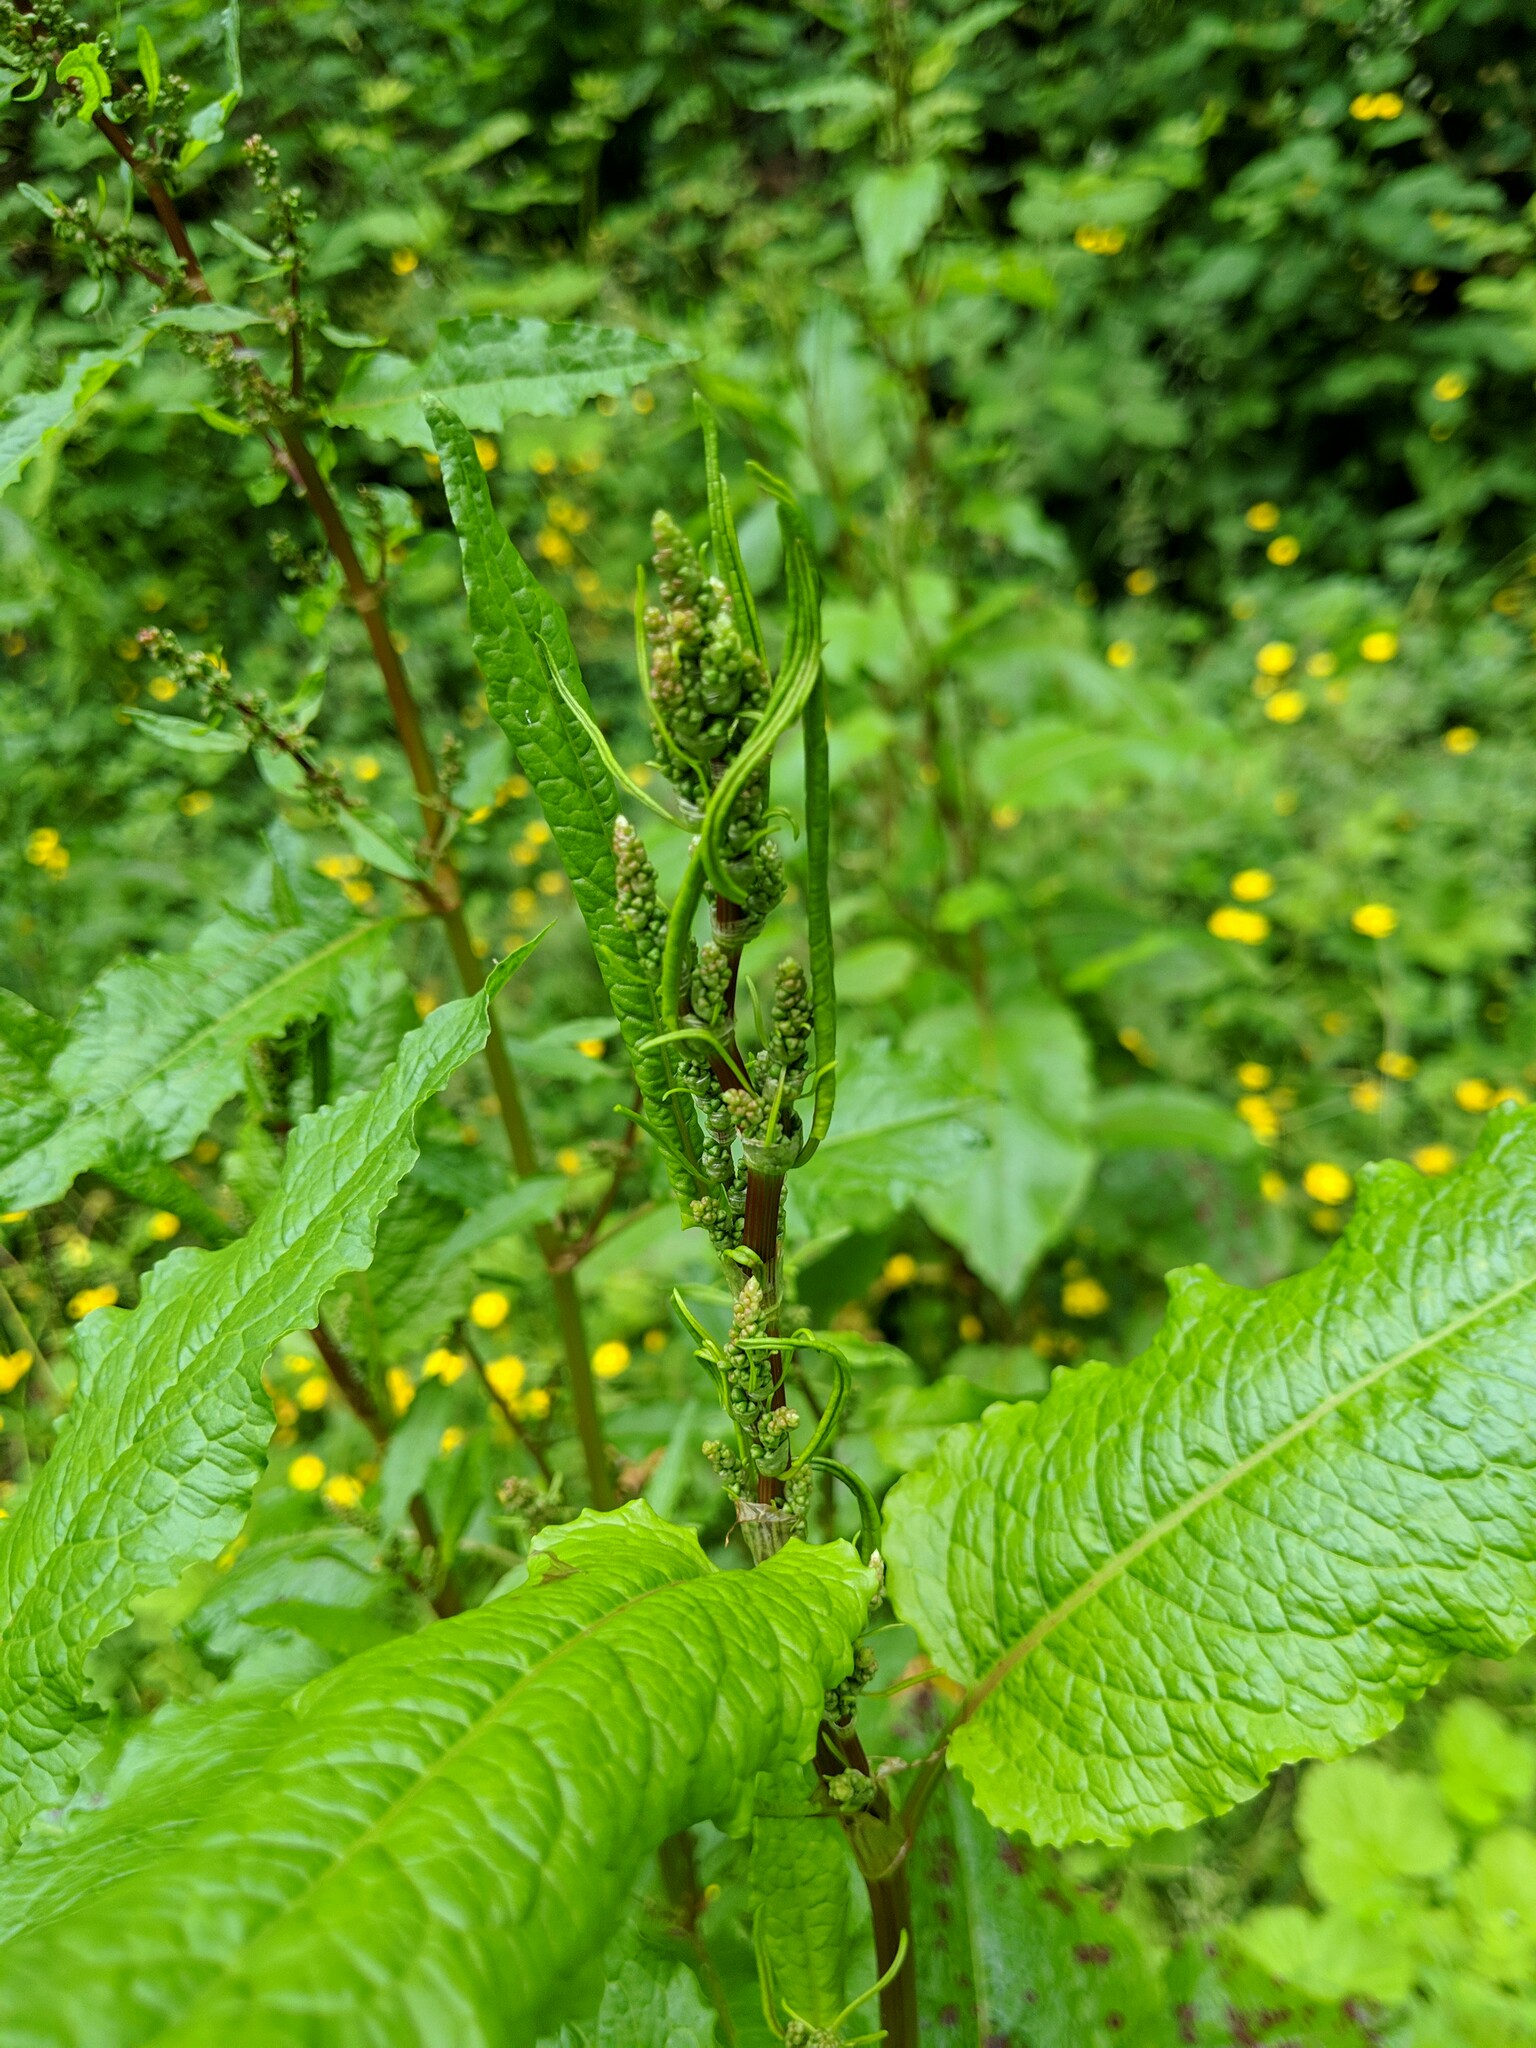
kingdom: Plantae
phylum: Tracheophyta
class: Magnoliopsida
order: Caryophyllales
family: Polygonaceae
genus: Rumex
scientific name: Rumex obtusifolius
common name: Bitter dock
